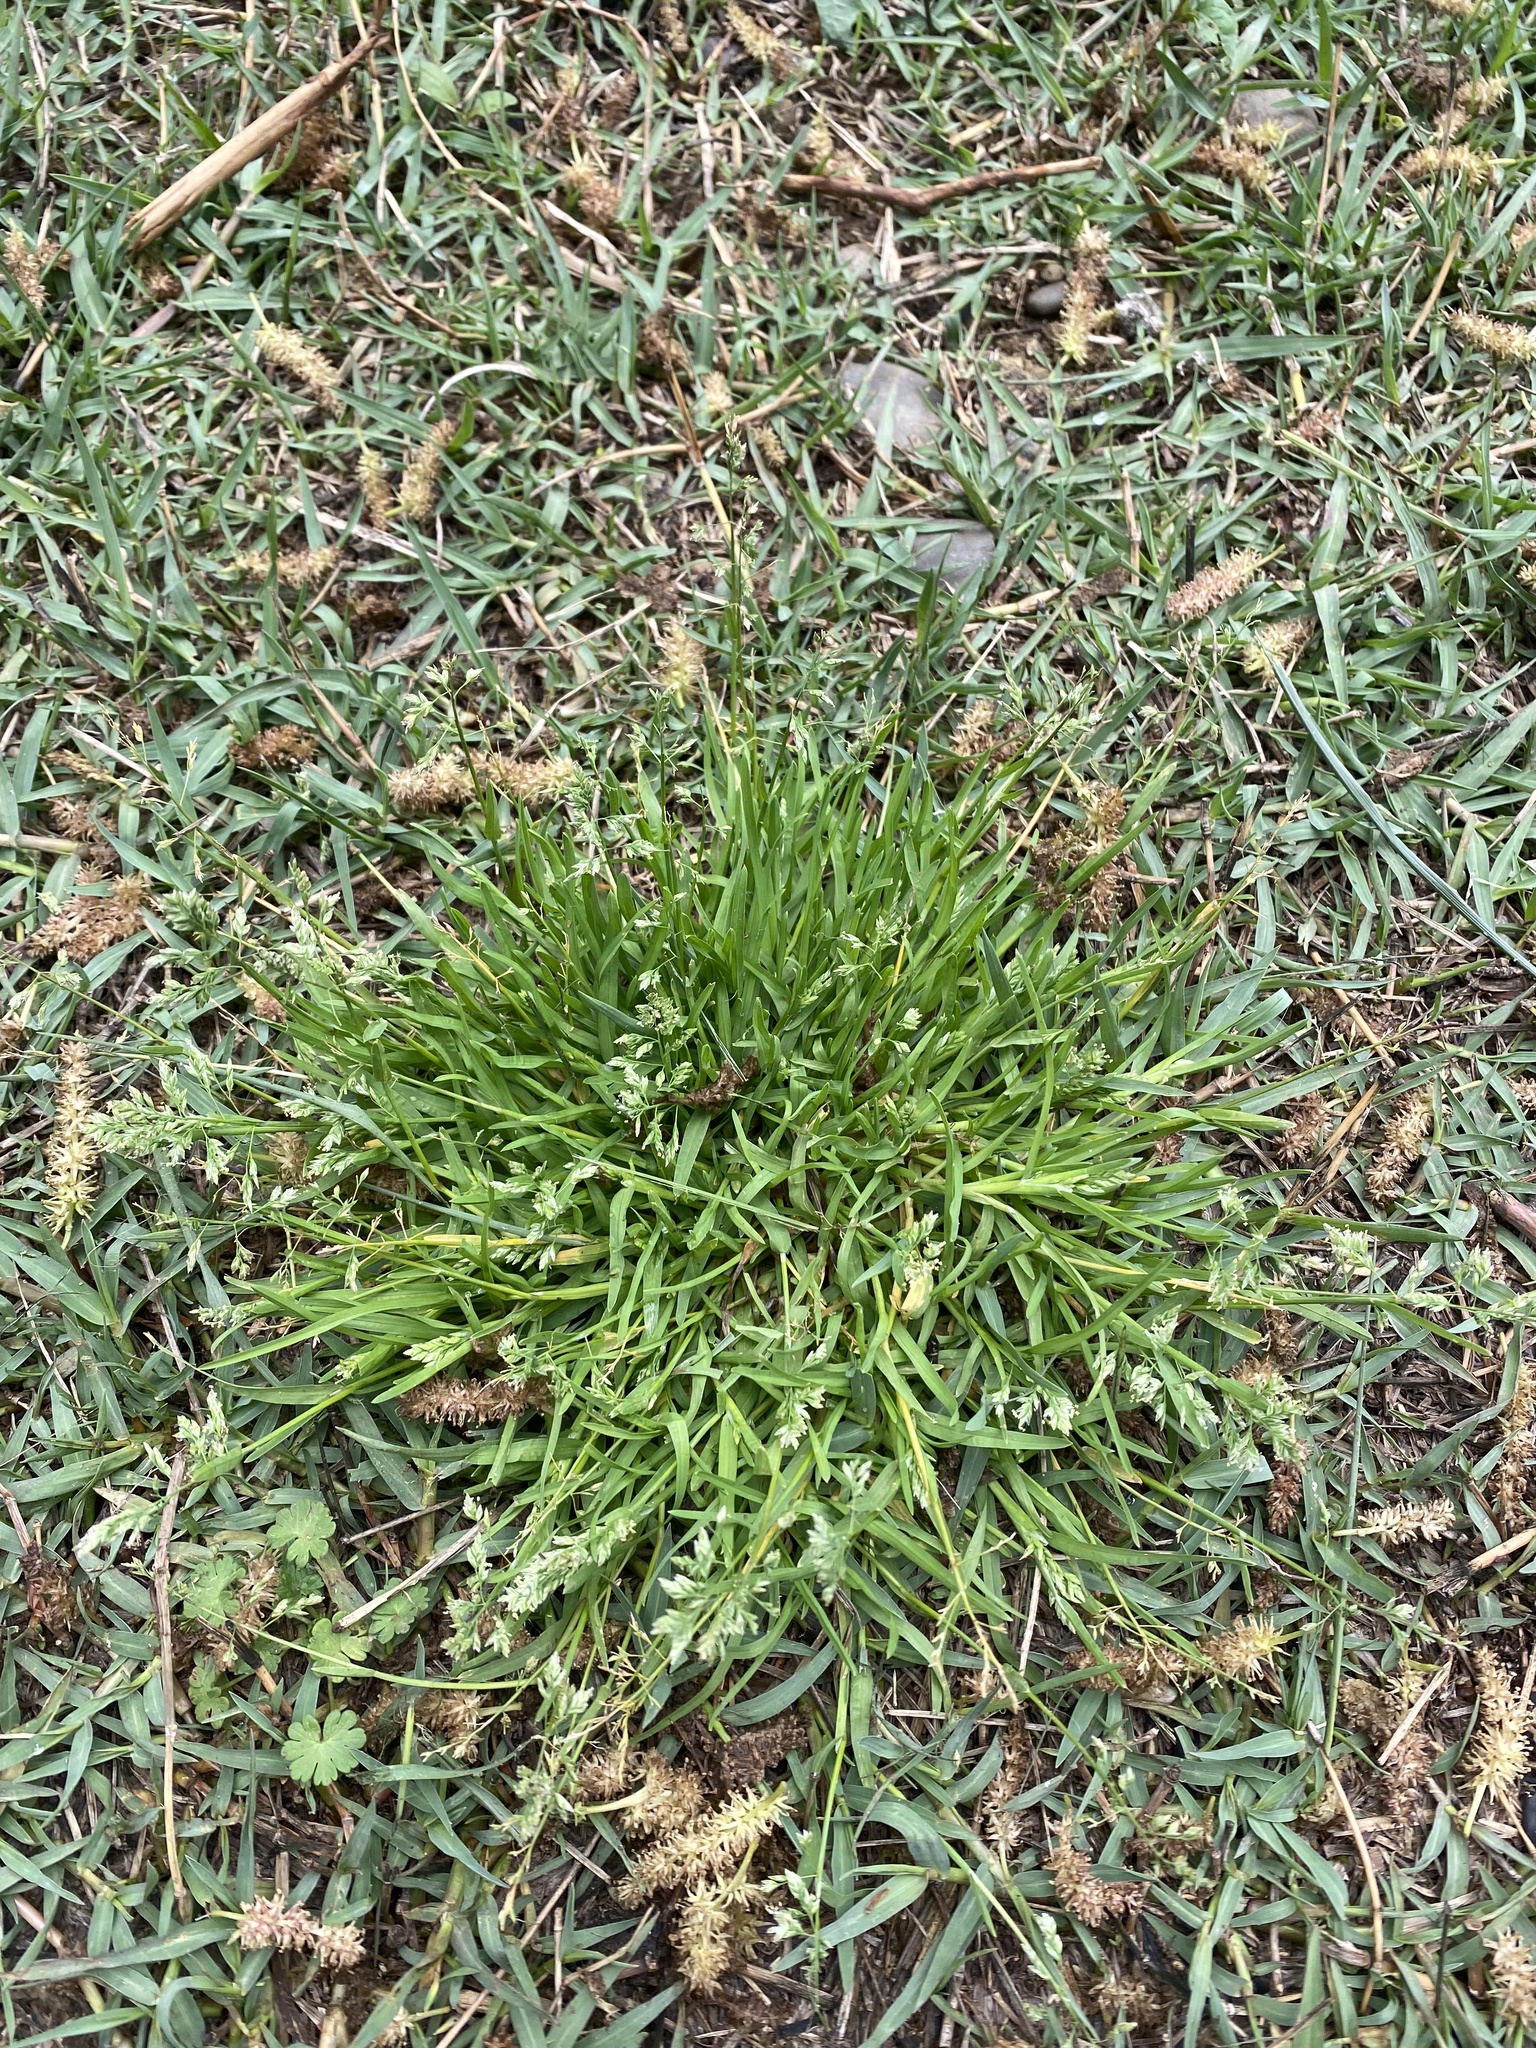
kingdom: Plantae
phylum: Tracheophyta
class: Liliopsida
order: Poales
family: Poaceae
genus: Poa
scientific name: Poa annua
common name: Annual bluegrass
